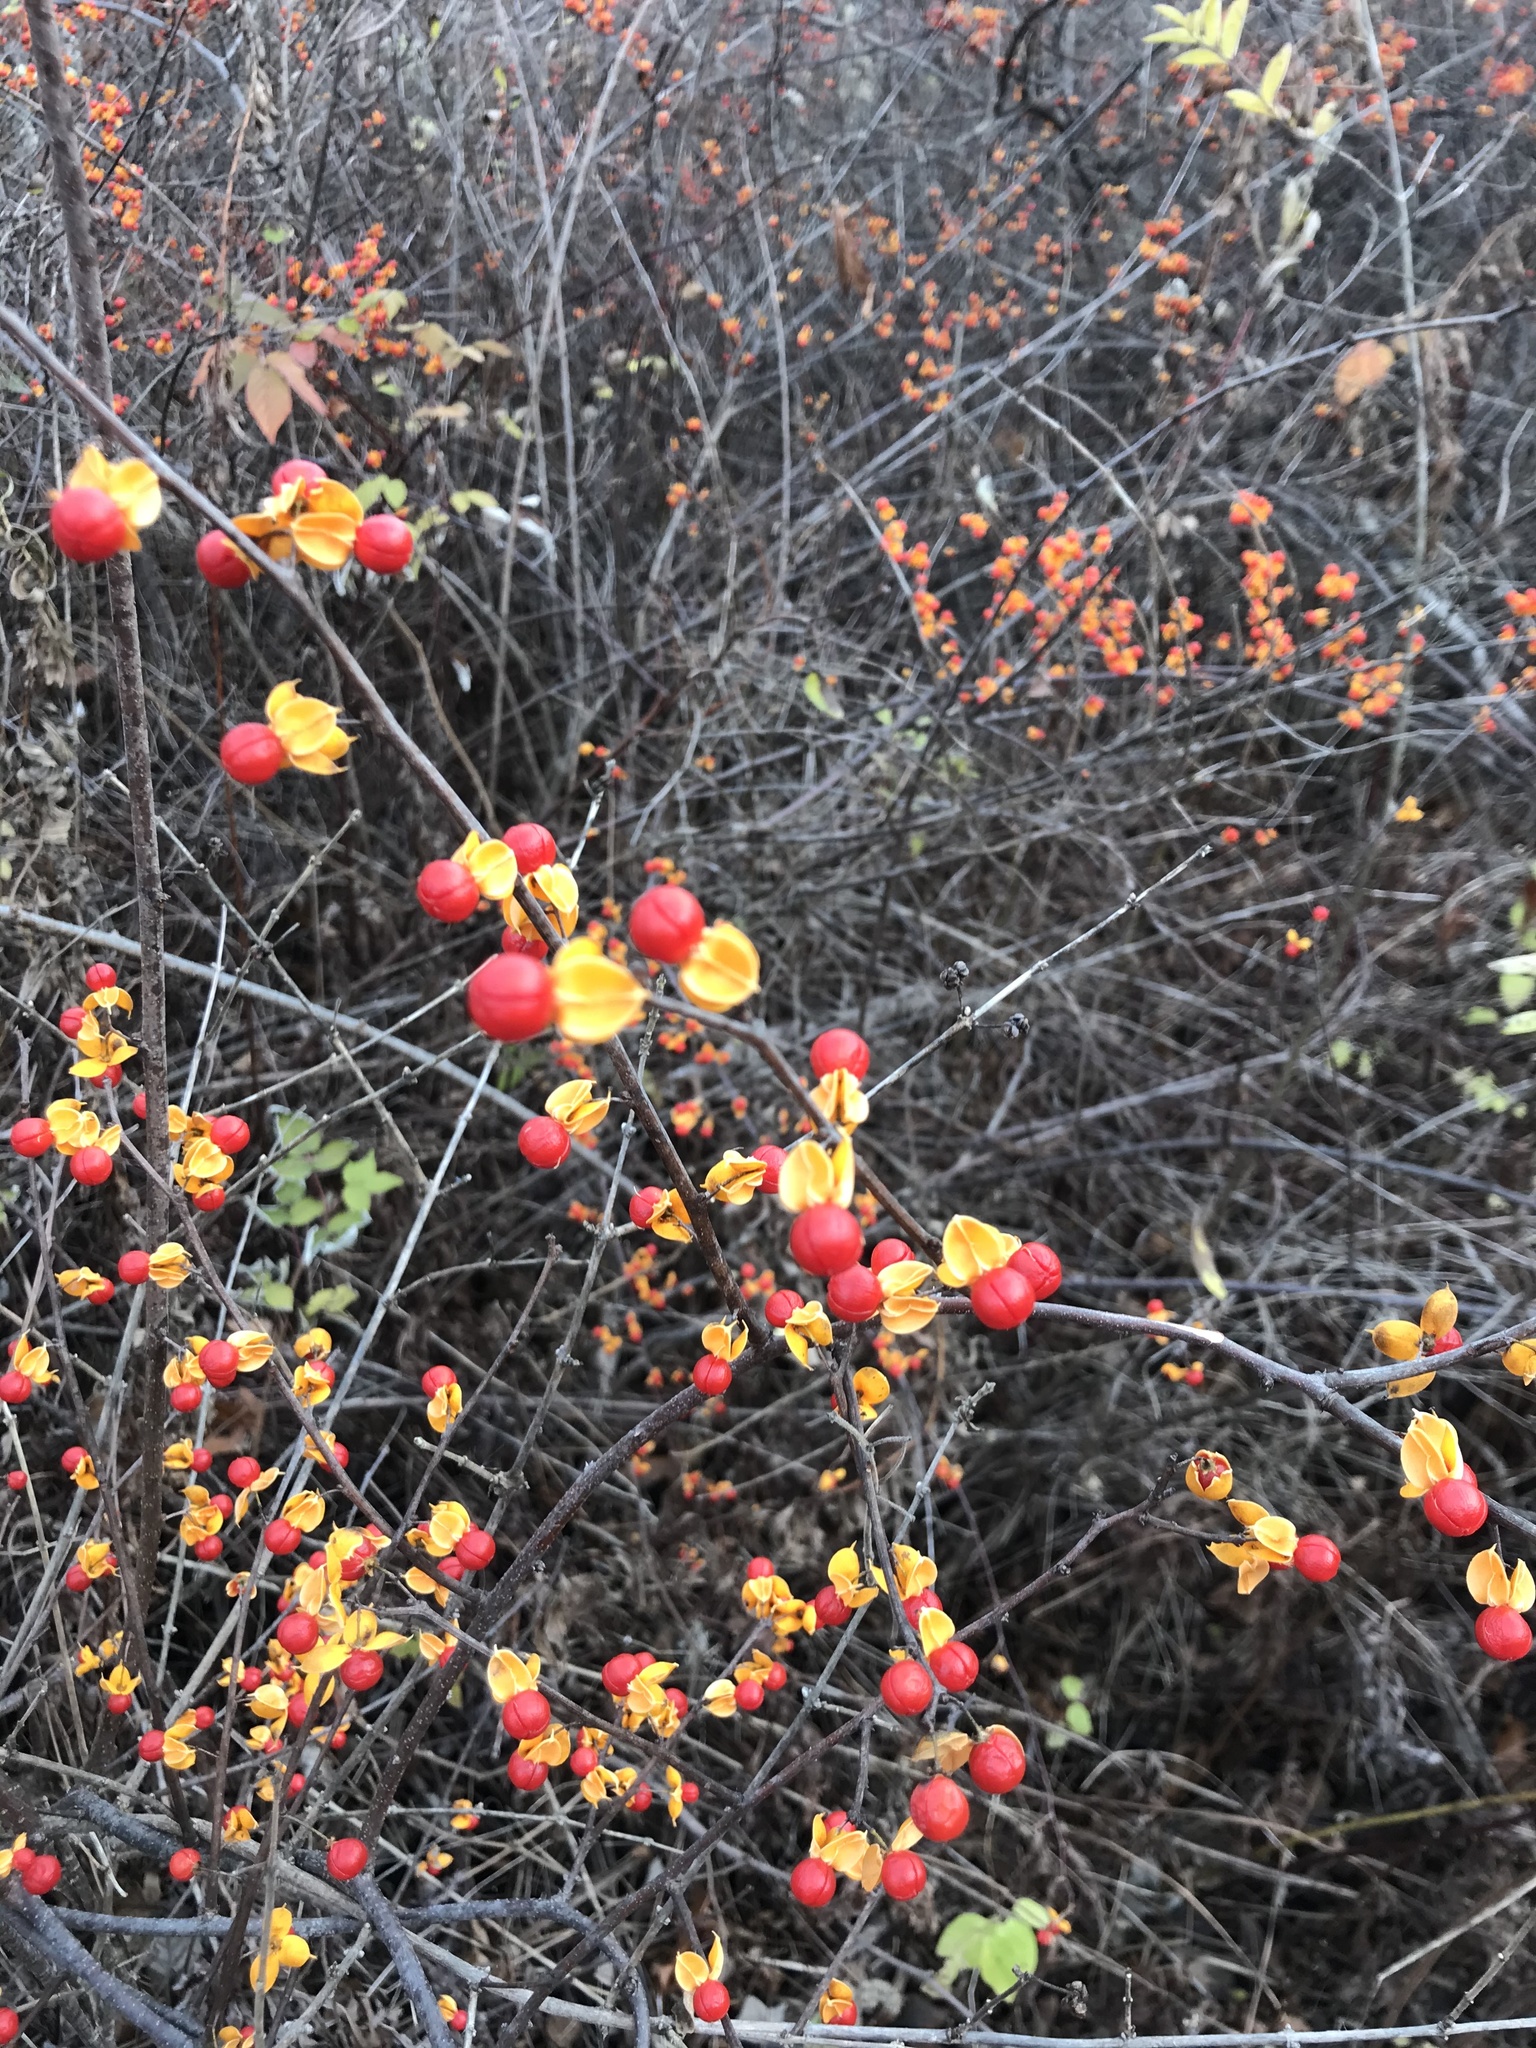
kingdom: Plantae
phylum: Tracheophyta
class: Magnoliopsida
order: Celastrales
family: Celastraceae
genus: Celastrus
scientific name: Celastrus orbiculatus
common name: Oriental bittersweet
